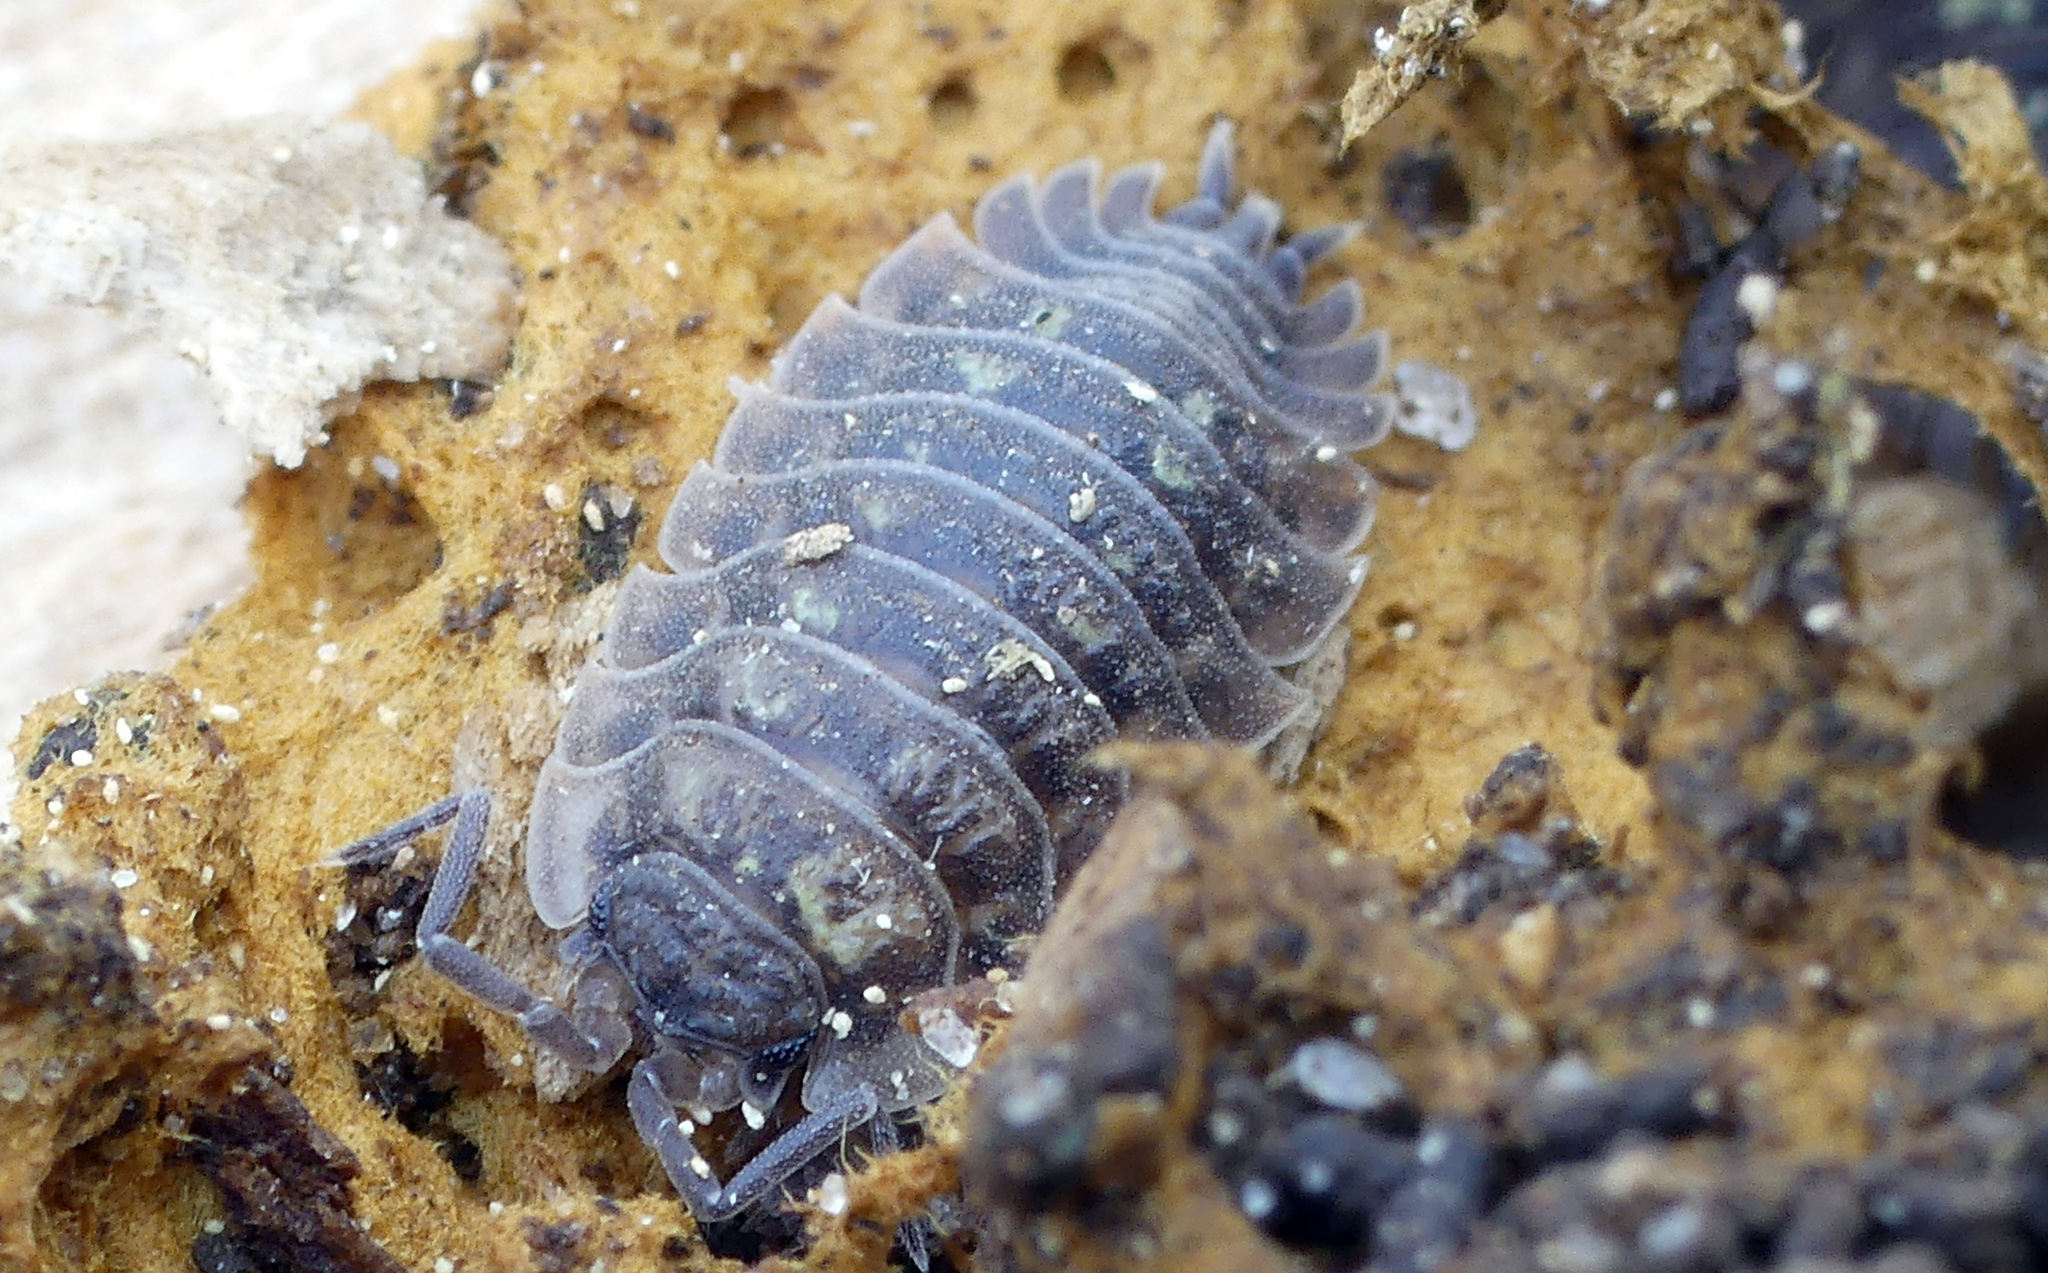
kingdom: Animalia
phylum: Arthropoda
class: Malacostraca
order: Isopoda
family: Oniscidae
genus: Oniscus
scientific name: Oniscus asellus
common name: Common shiny woodlouse
